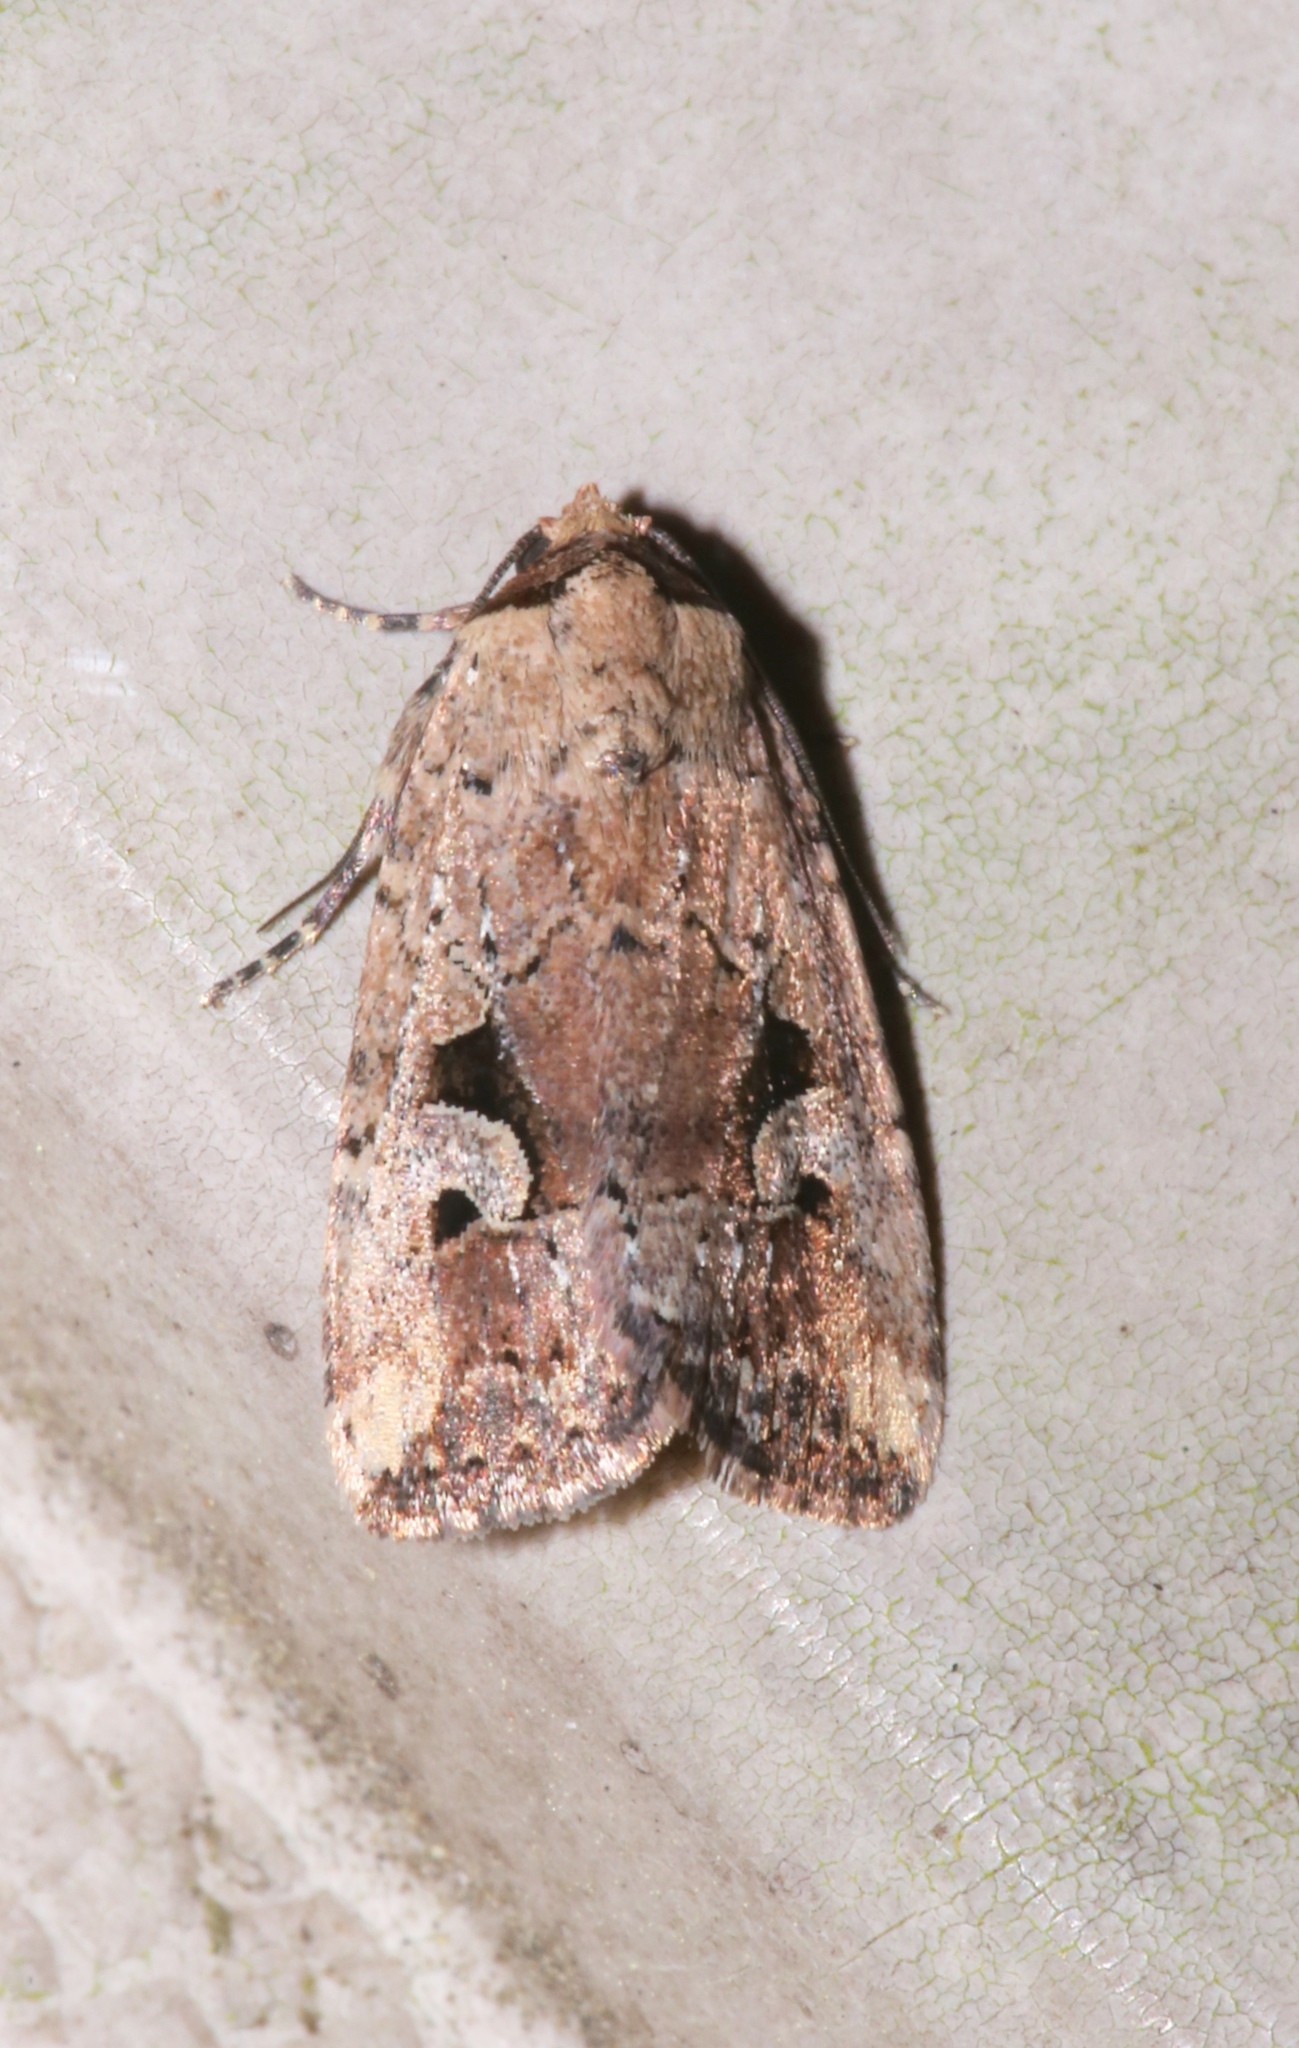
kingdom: Animalia
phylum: Arthropoda
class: Insecta
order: Lepidoptera
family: Noctuidae
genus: Elaphria
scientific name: Elaphria festivoides
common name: Festive midget
